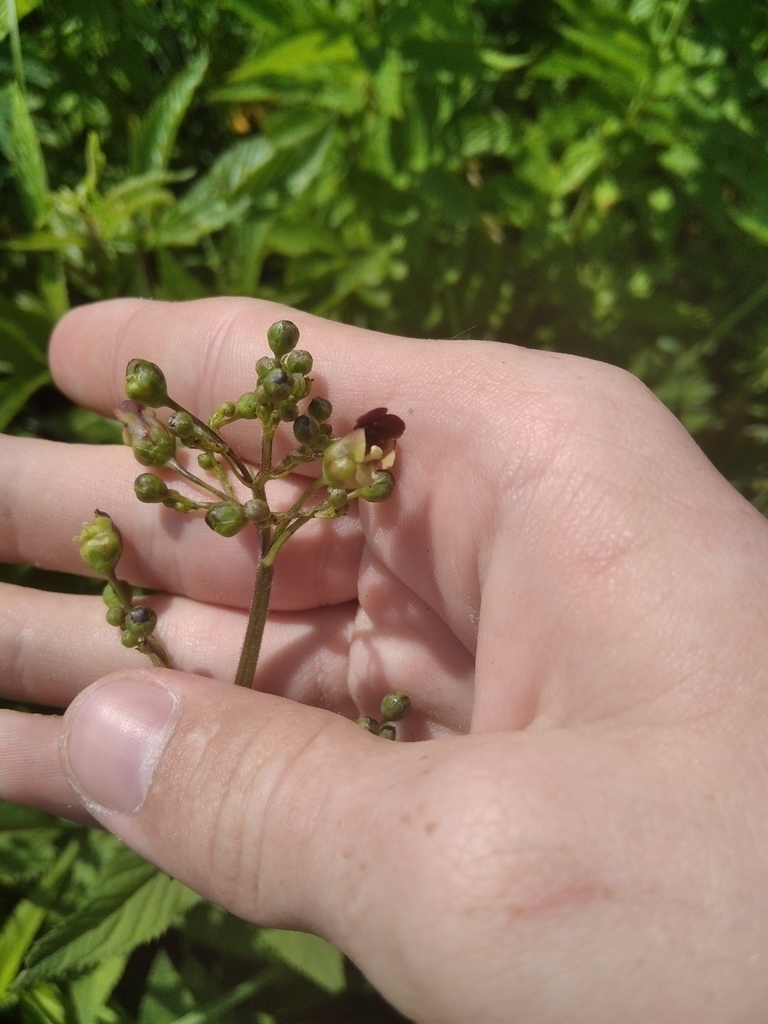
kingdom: Plantae
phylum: Tracheophyta
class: Magnoliopsida
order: Lamiales
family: Scrophulariaceae
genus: Scrophularia
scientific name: Scrophularia nodosa
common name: Common figwort
